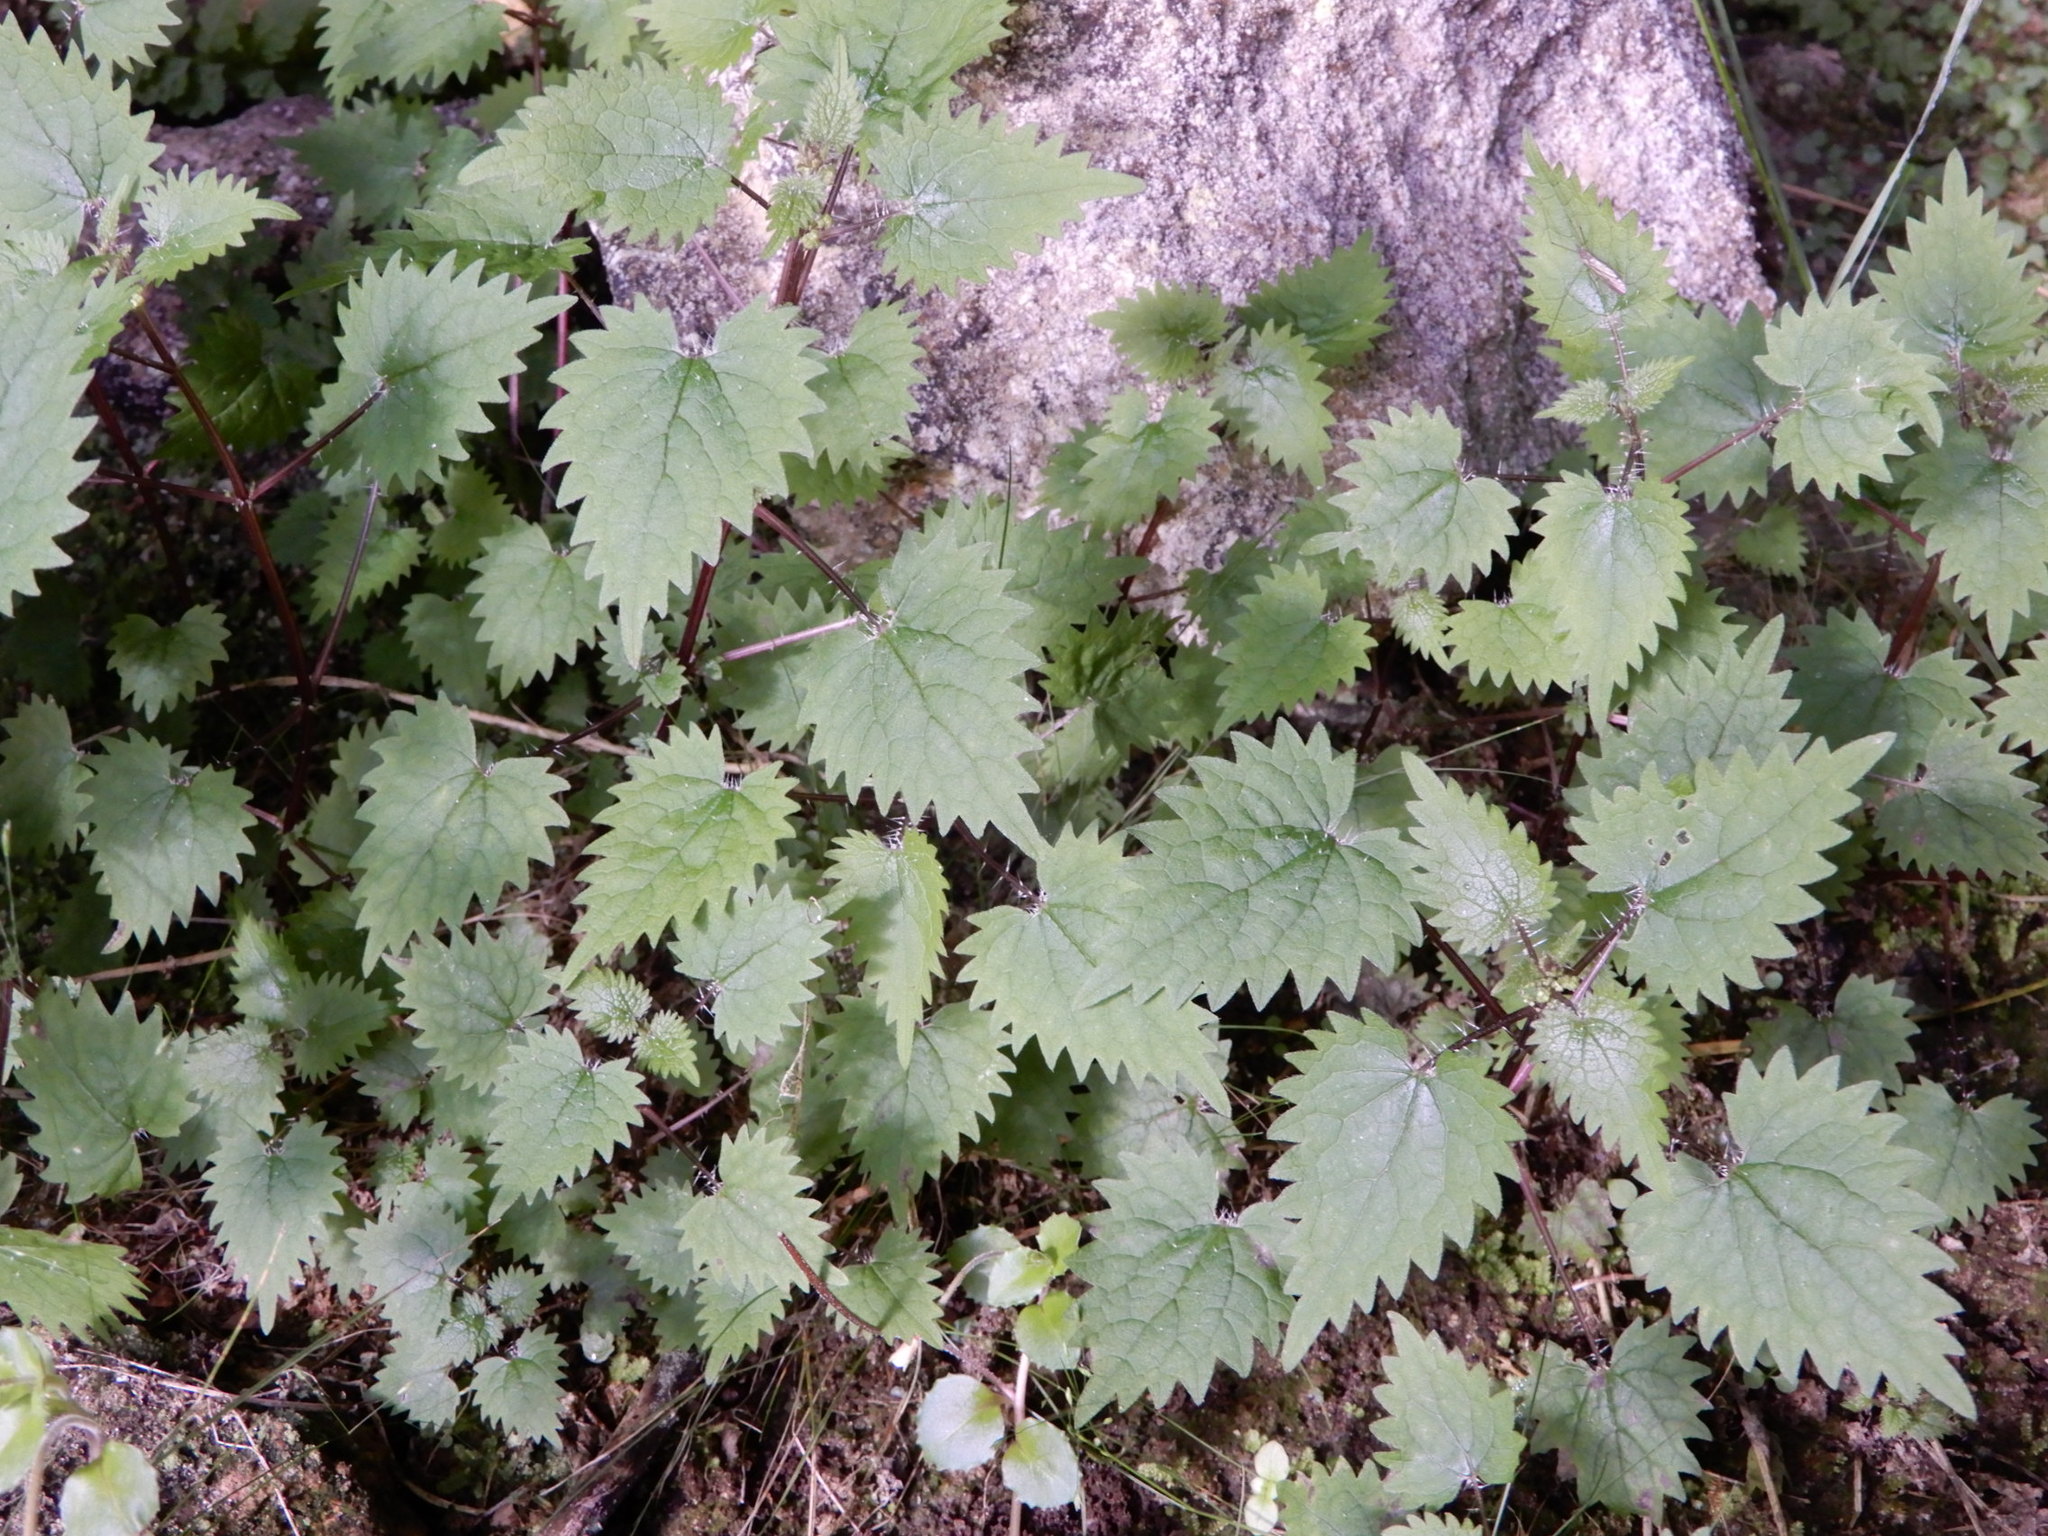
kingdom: Plantae
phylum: Tracheophyta
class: Magnoliopsida
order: Rosales
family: Urticaceae
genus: Urtica
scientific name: Urtica sykesii
